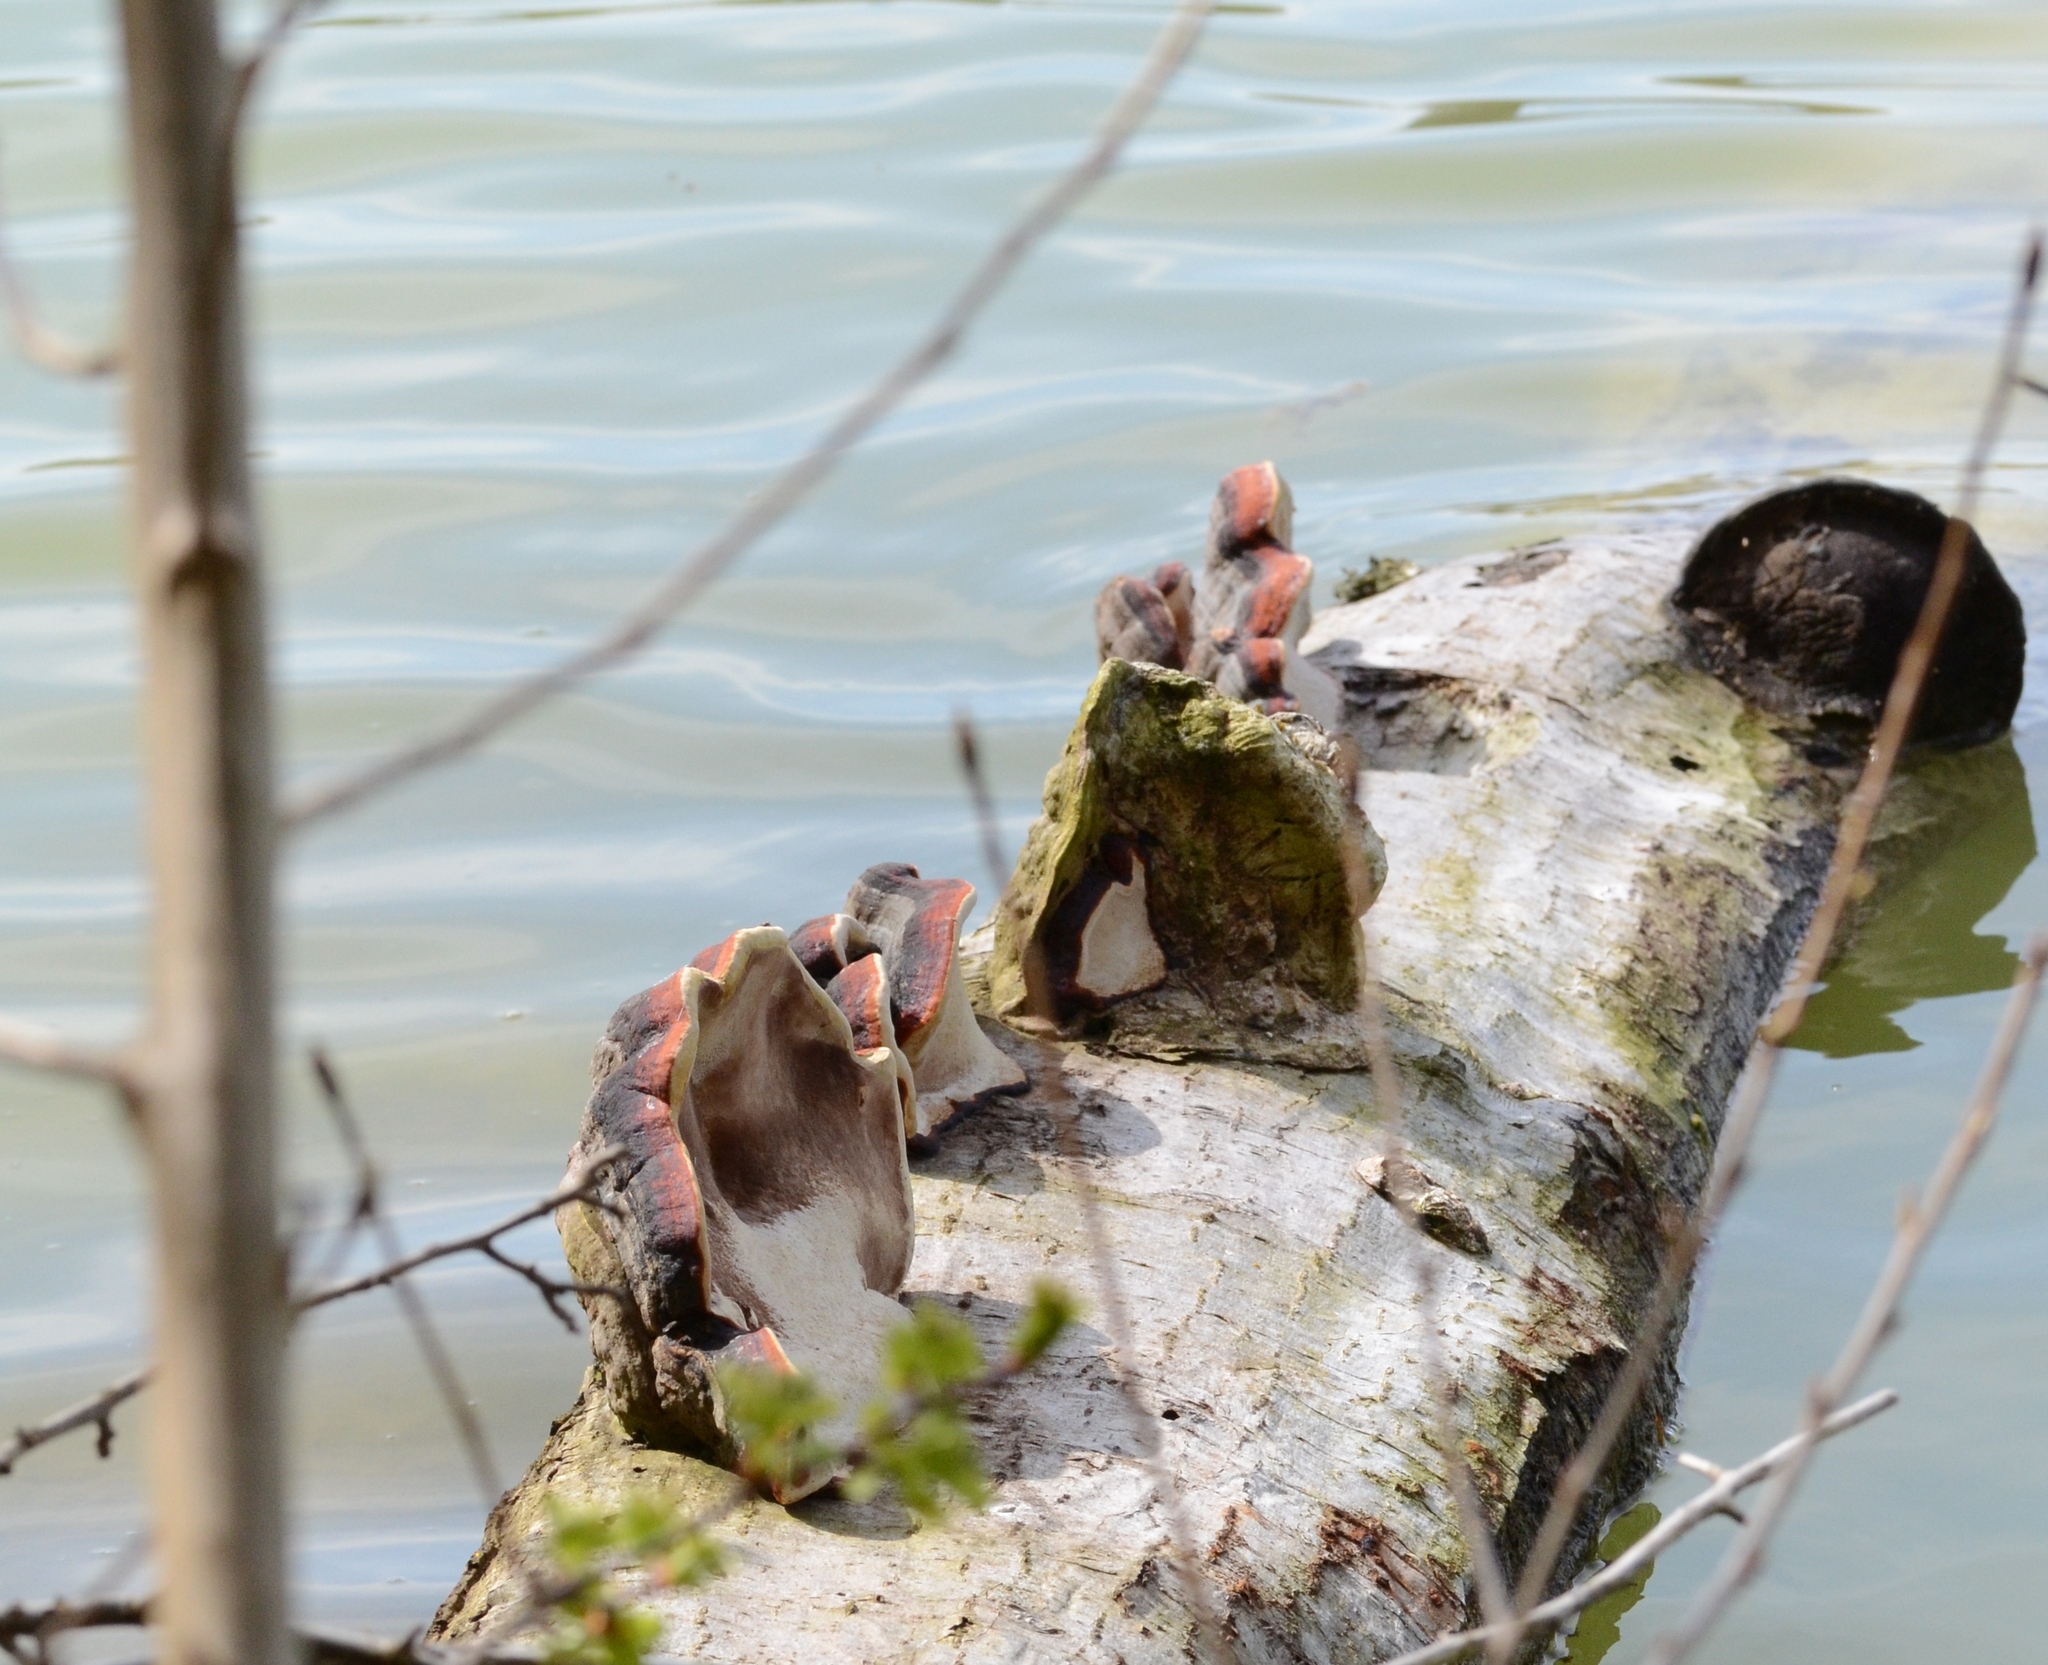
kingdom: Fungi
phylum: Basidiomycota
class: Agaricomycetes
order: Polyporales
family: Fomitopsidaceae
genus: Fomitopsis
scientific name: Fomitopsis pinicola
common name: Red-belted bracket
